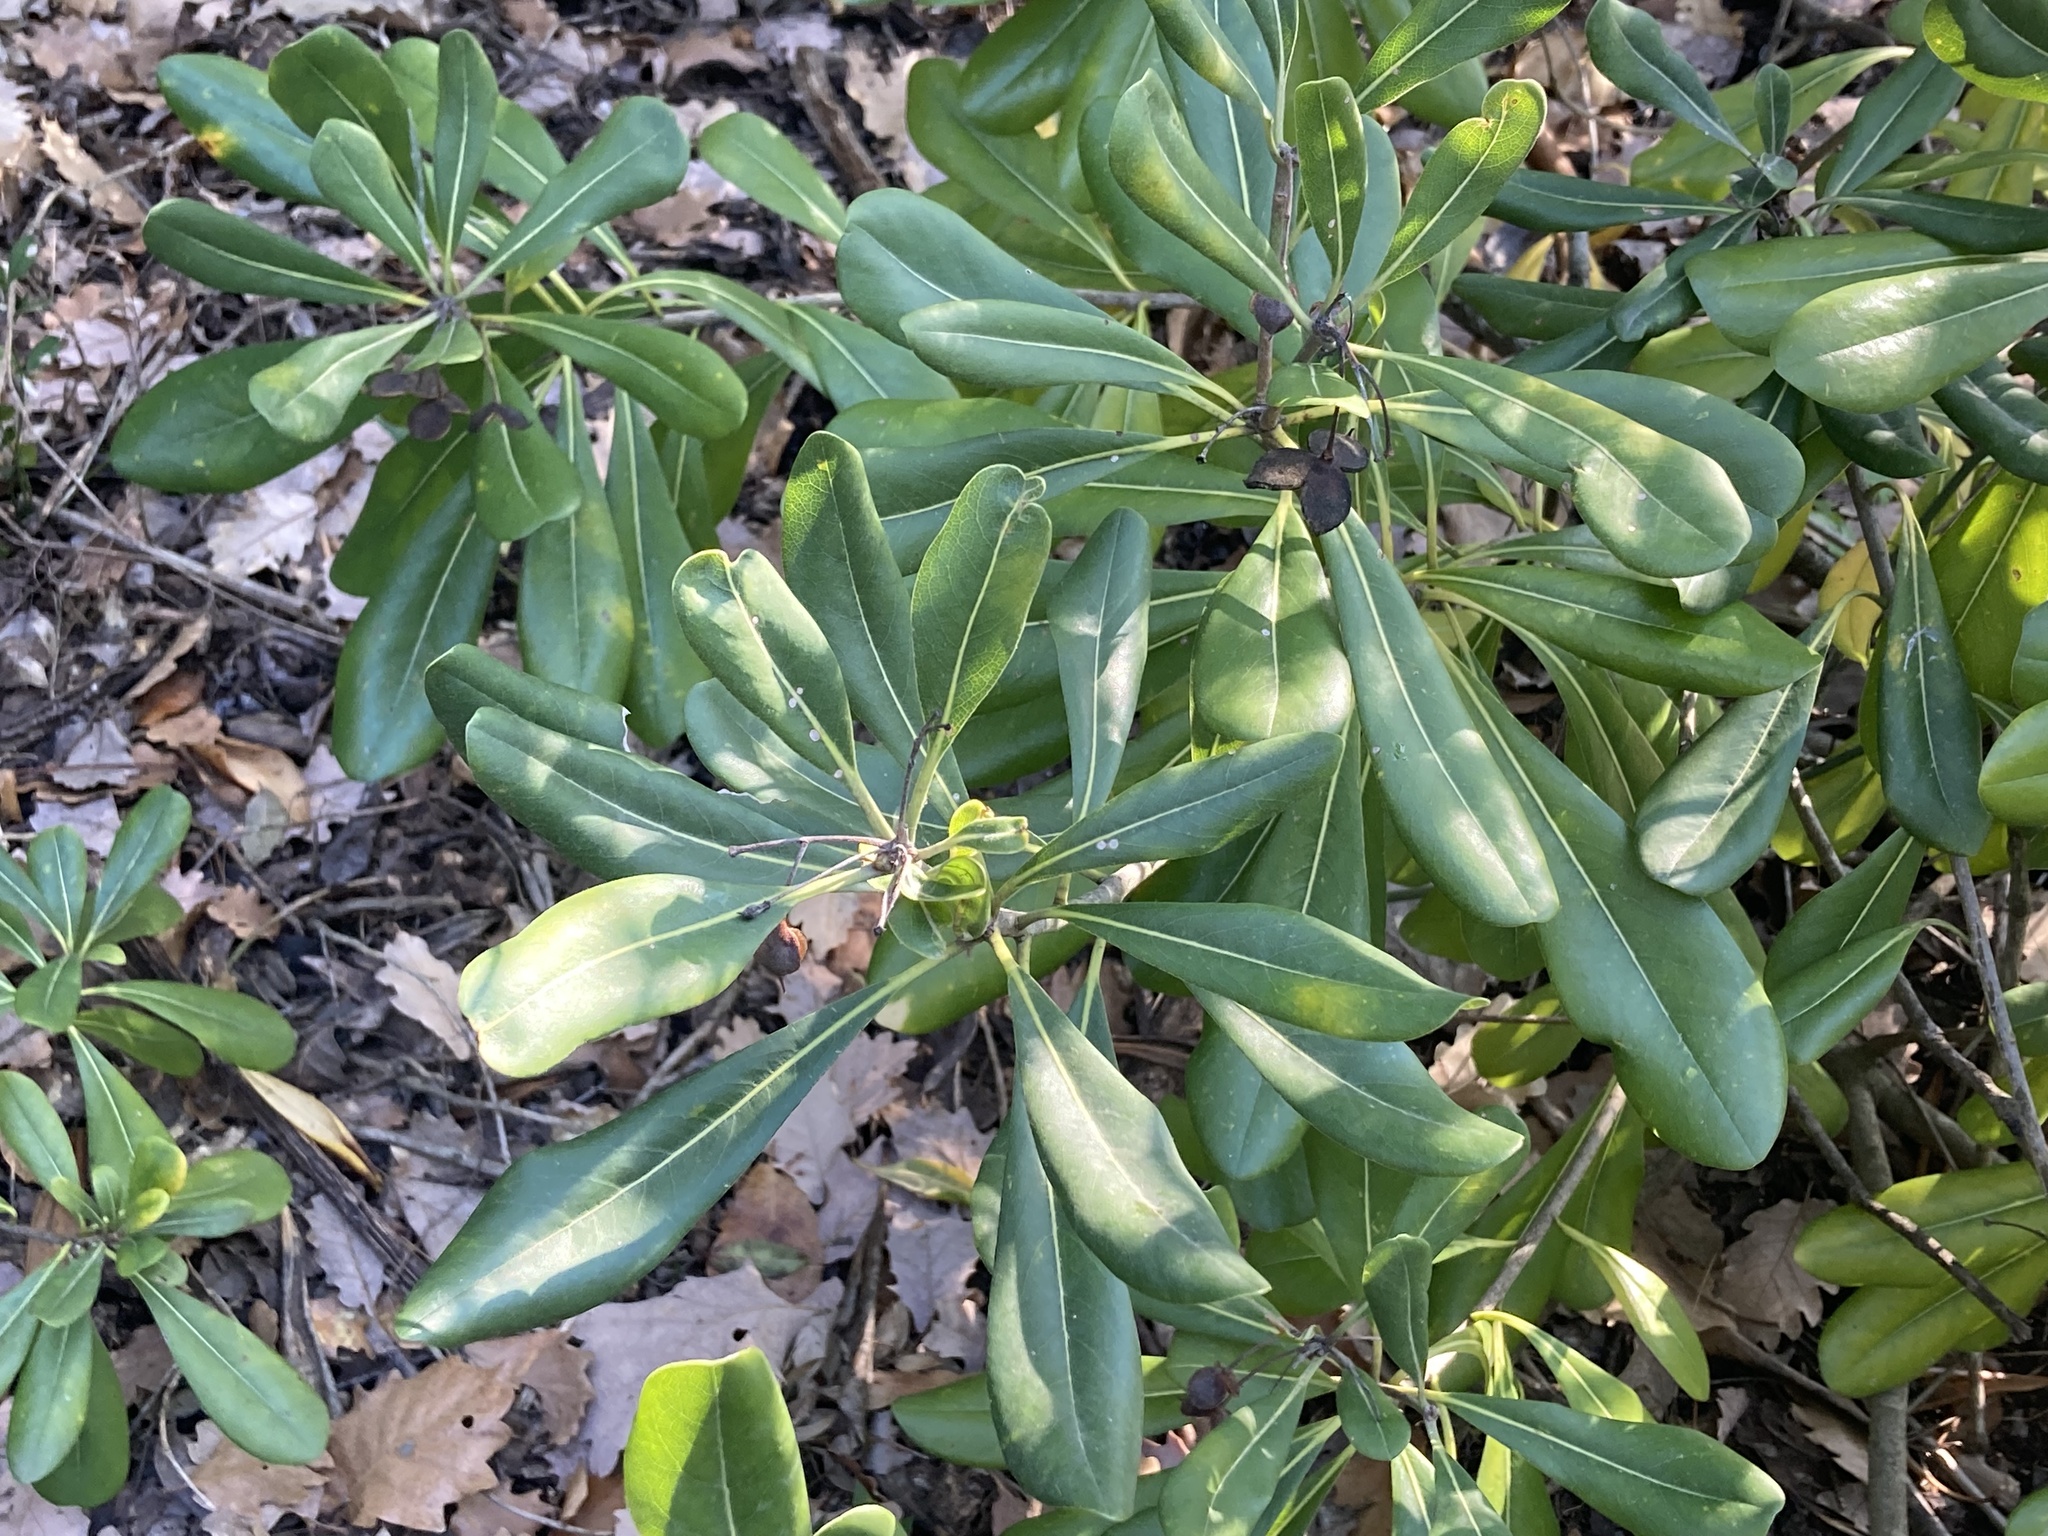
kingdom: Plantae
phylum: Tracheophyta
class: Magnoliopsida
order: Apiales
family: Pittosporaceae
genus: Pittosporum
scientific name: Pittosporum tobira
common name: Japanese cheesewood
